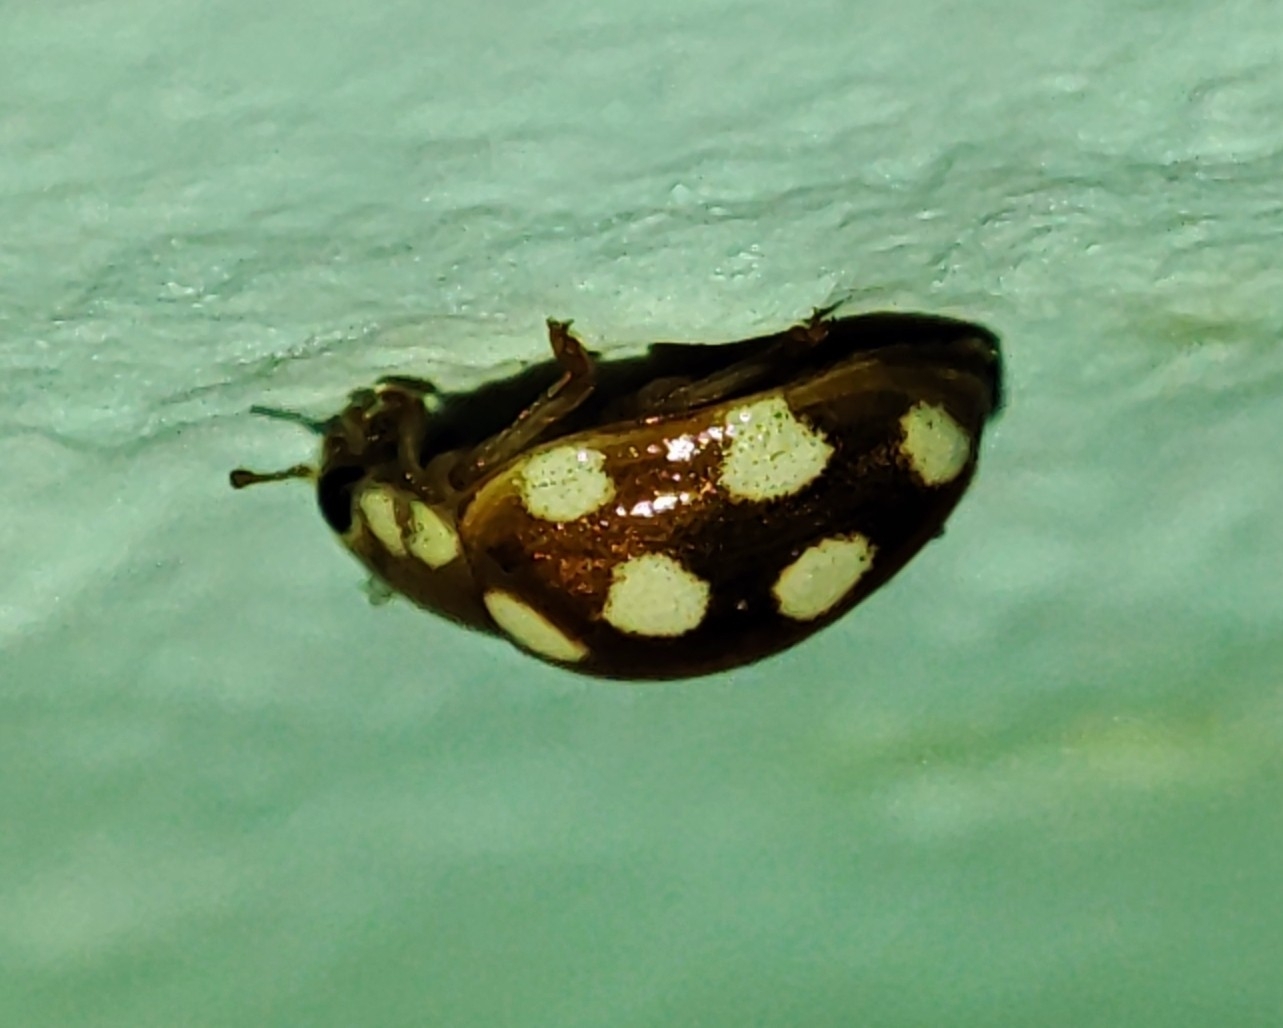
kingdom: Animalia
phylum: Arthropoda
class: Insecta
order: Coleoptera
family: Coccinellidae
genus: Vibidia
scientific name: Vibidia duodecimguttata
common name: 12-spot ladybird
